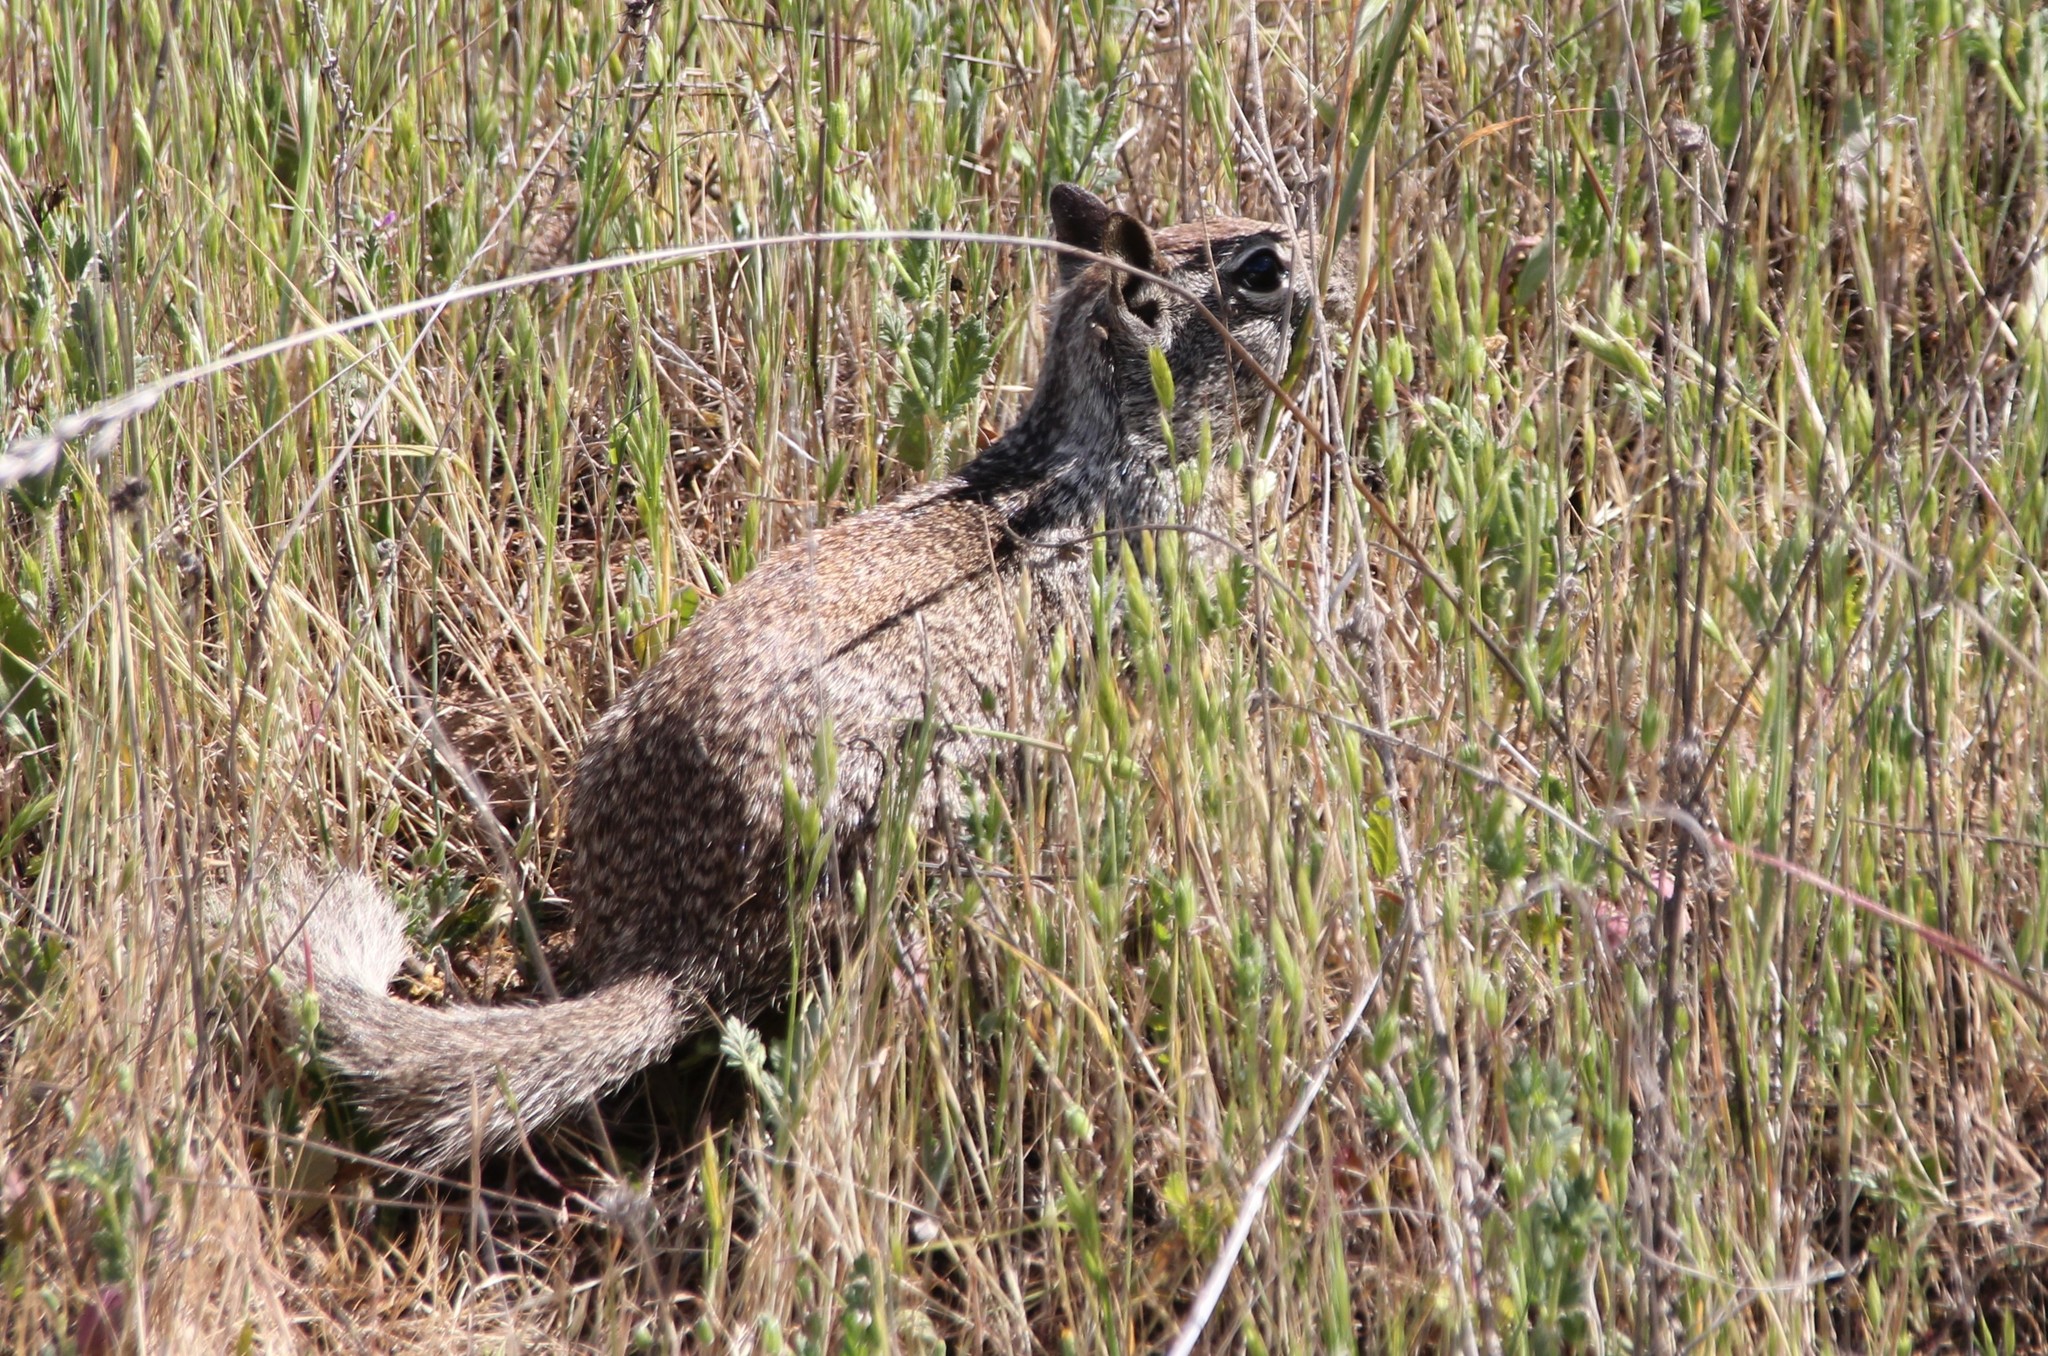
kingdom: Animalia
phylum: Chordata
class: Mammalia
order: Rodentia
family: Sciuridae
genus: Otospermophilus
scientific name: Otospermophilus beecheyi
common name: California ground squirrel
